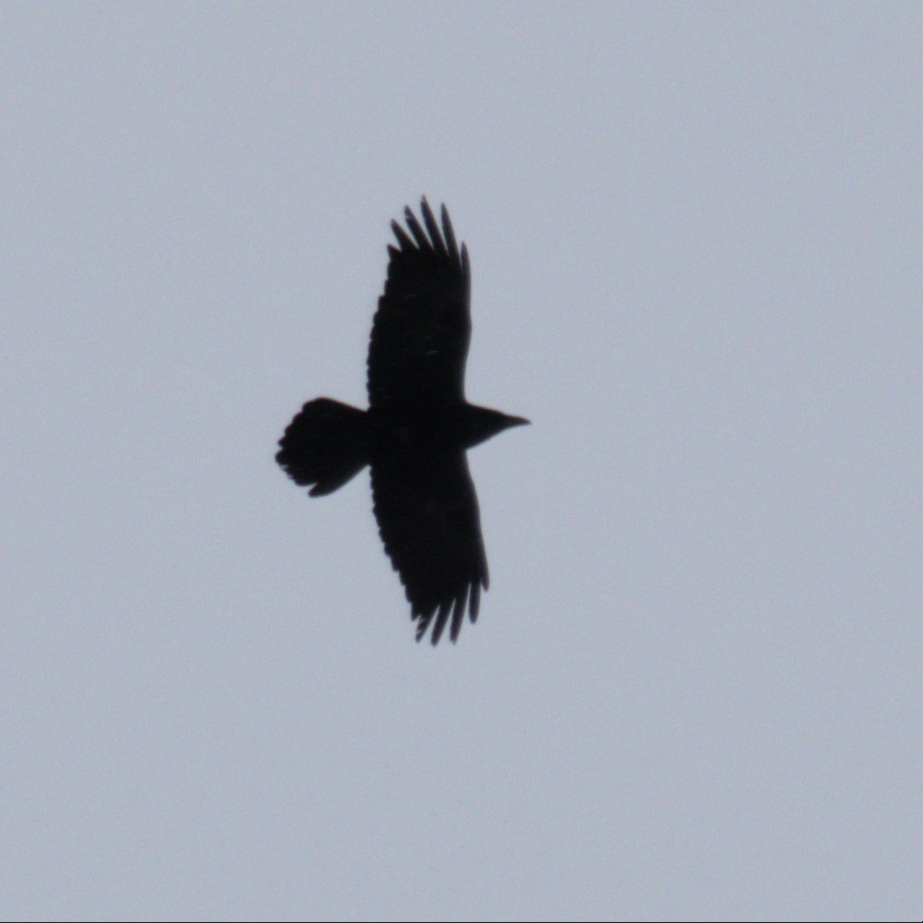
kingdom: Animalia
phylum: Chordata
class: Aves
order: Passeriformes
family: Corvidae
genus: Corvus
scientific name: Corvus corax
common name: Common raven
